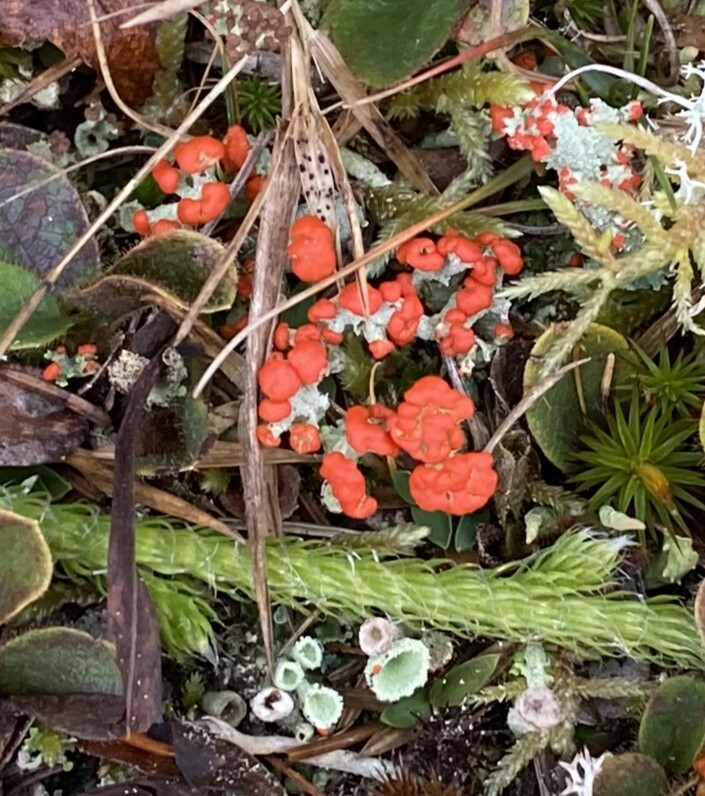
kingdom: Fungi
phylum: Ascomycota
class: Lecanoromycetes
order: Lecanorales
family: Cladoniaceae
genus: Cladonia
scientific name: Cladonia cristatella
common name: British soldier lichen
